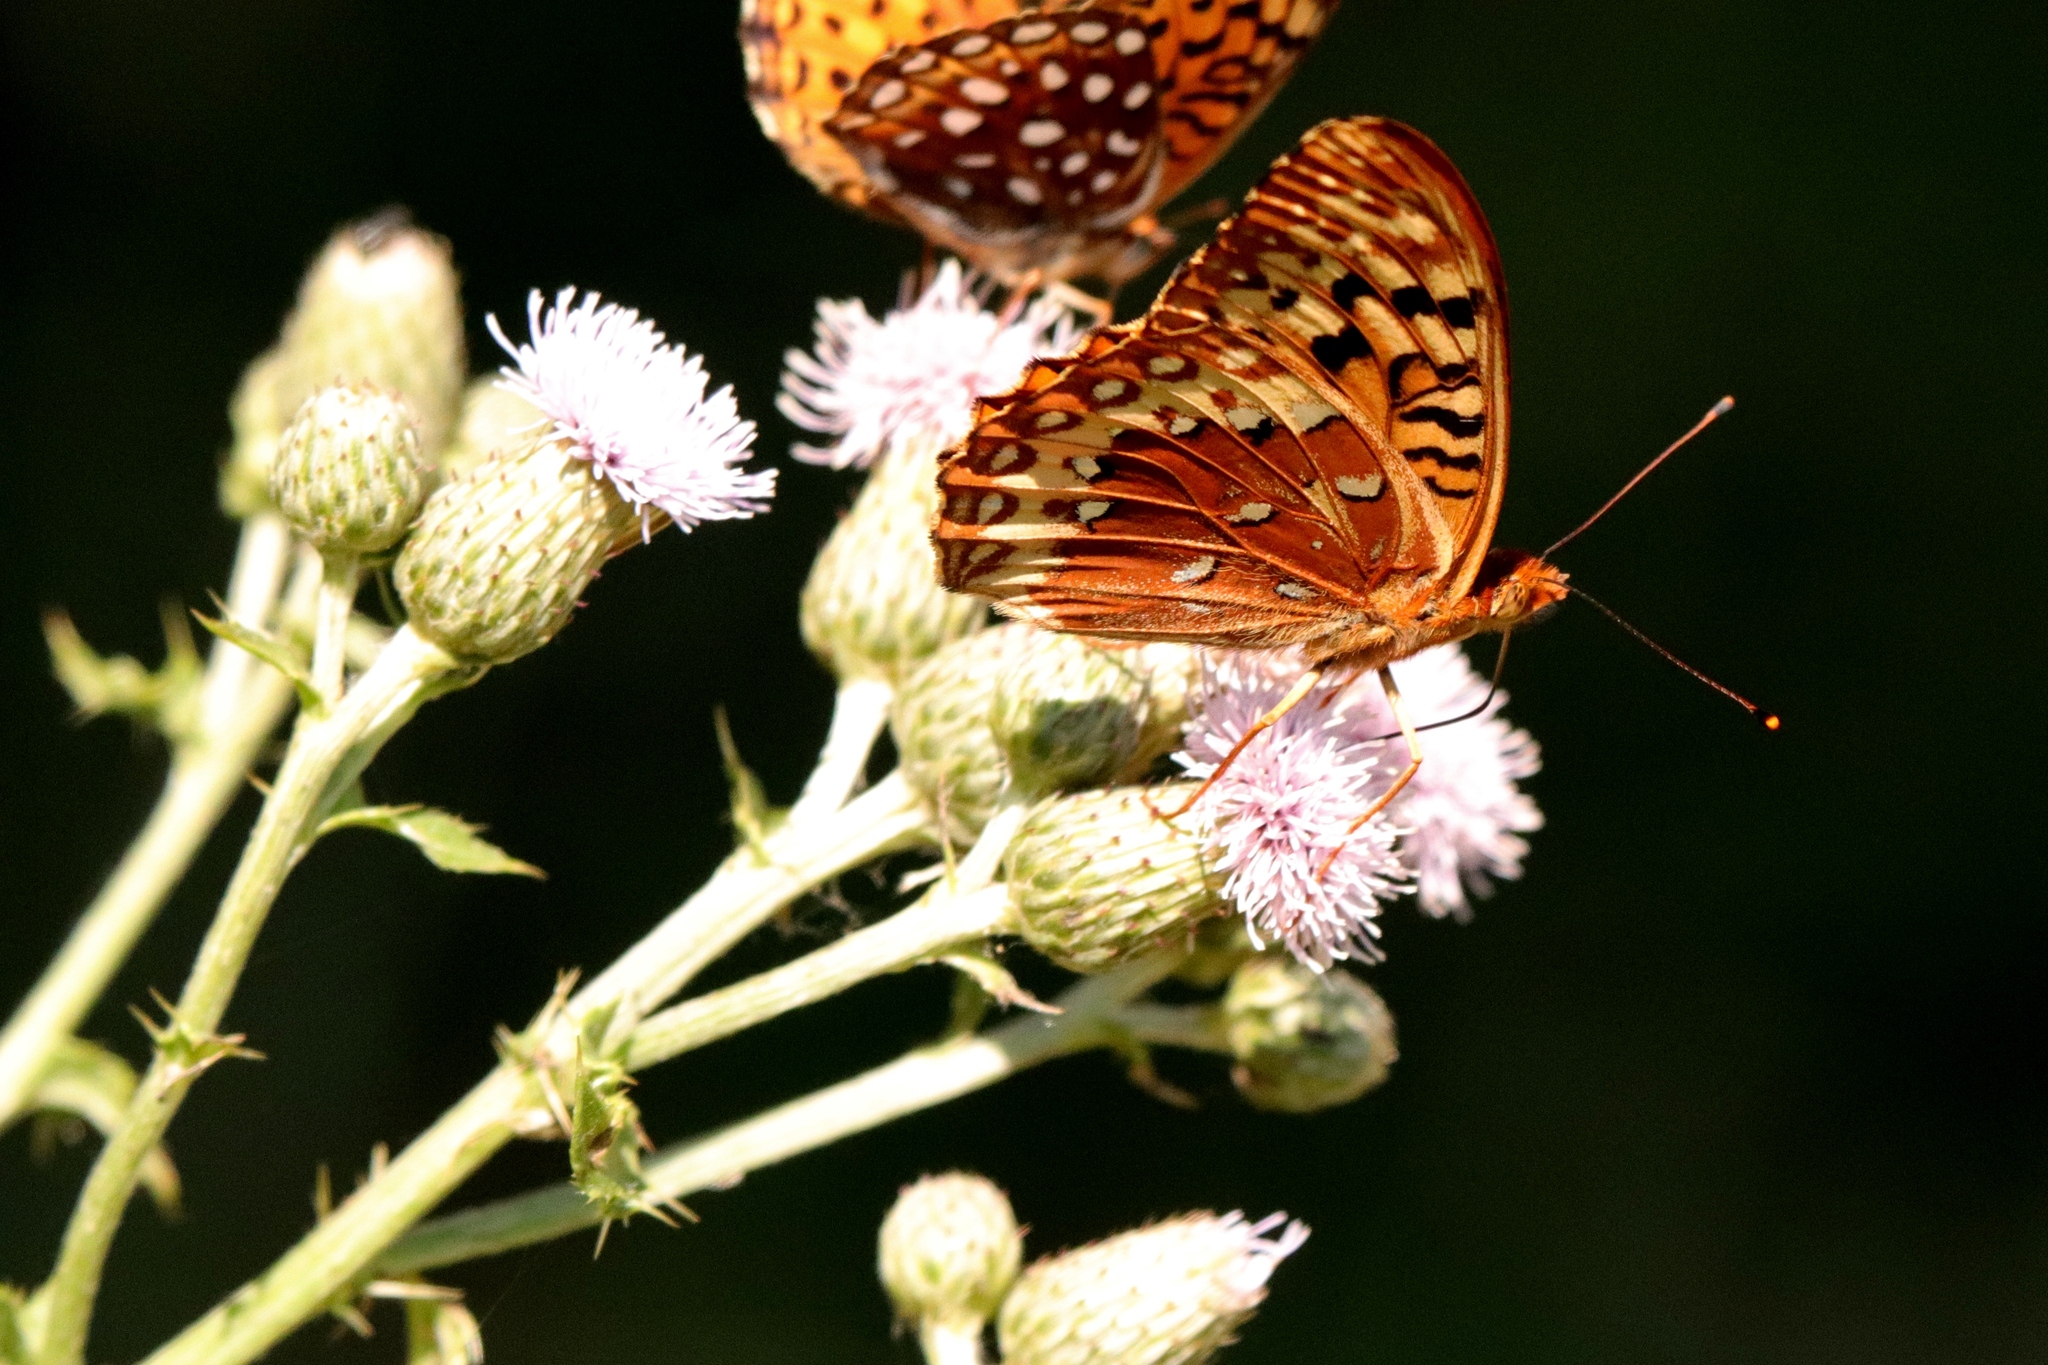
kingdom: Animalia
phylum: Arthropoda
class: Insecta
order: Lepidoptera
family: Nymphalidae
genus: Speyeria
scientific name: Speyeria cybele
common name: Great spangled fritillary
